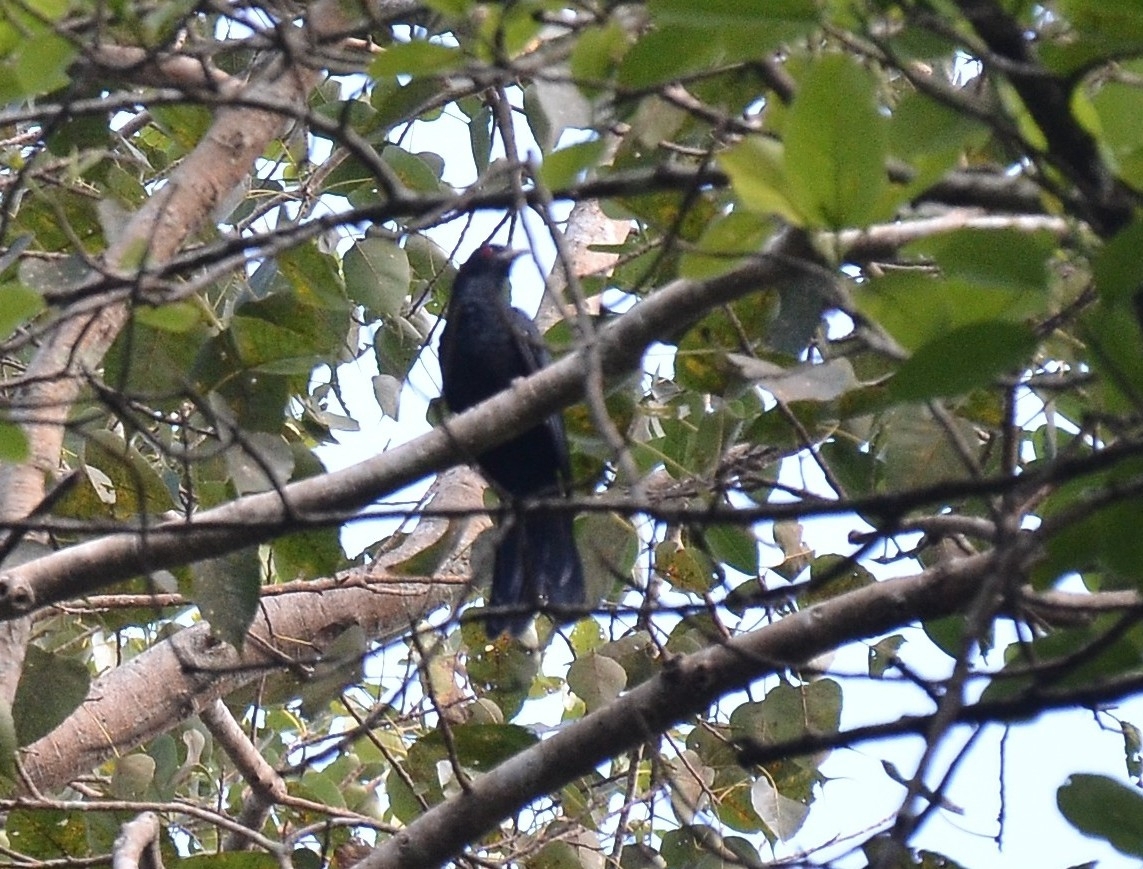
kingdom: Animalia
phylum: Chordata
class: Aves
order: Cuculiformes
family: Cuculidae
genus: Eudynamys
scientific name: Eudynamys scolopaceus
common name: Asian koel
